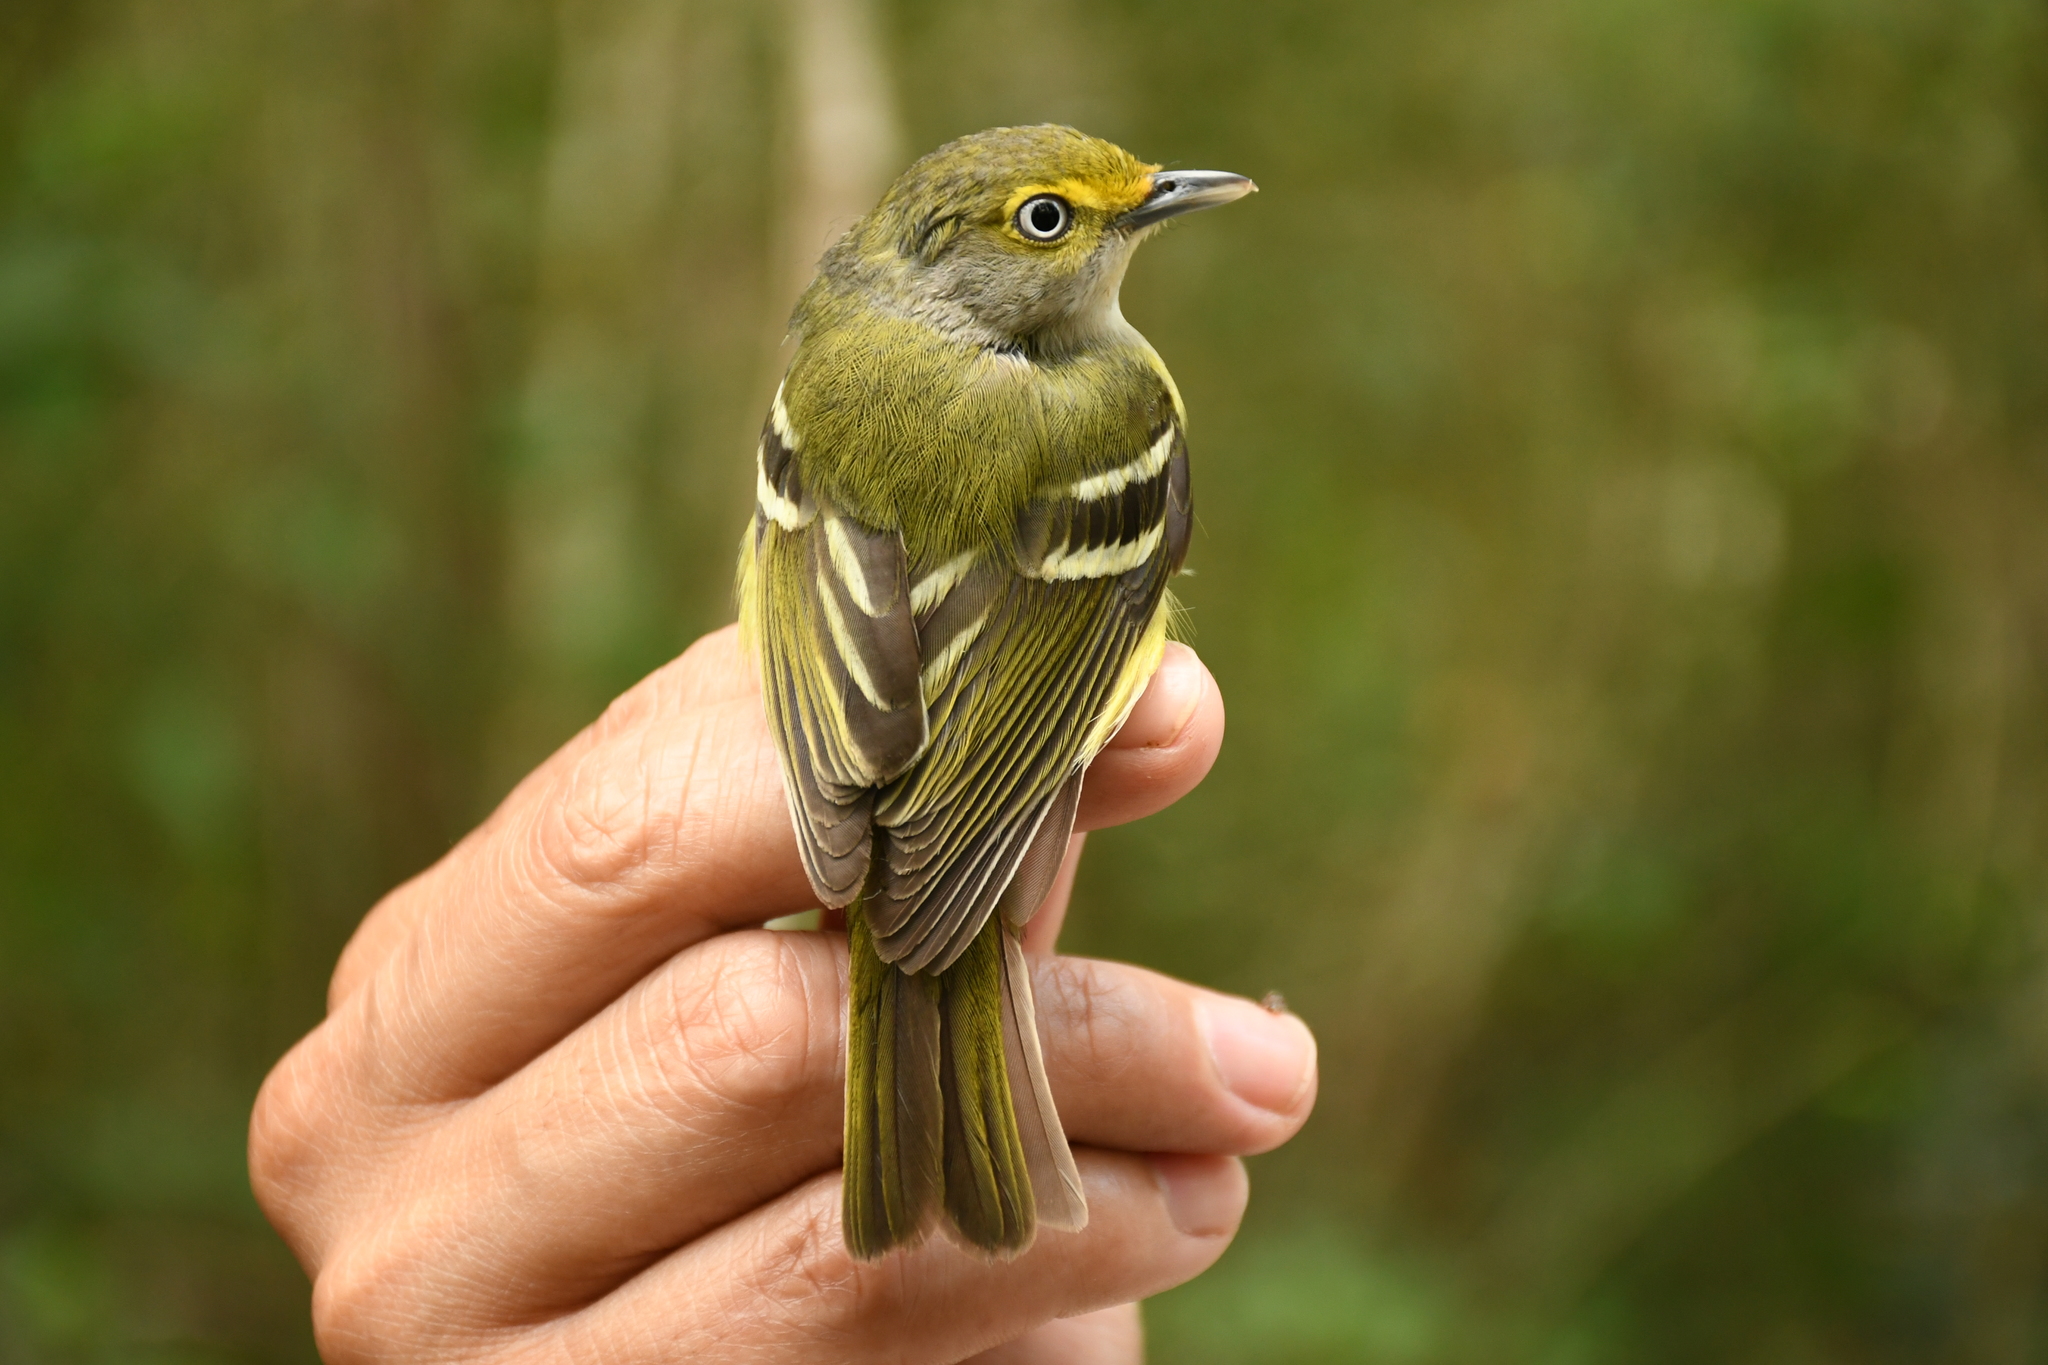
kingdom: Animalia
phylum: Chordata
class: Aves
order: Passeriformes
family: Vireonidae
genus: Vireo
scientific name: Vireo griseus
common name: White-eyed vireo
